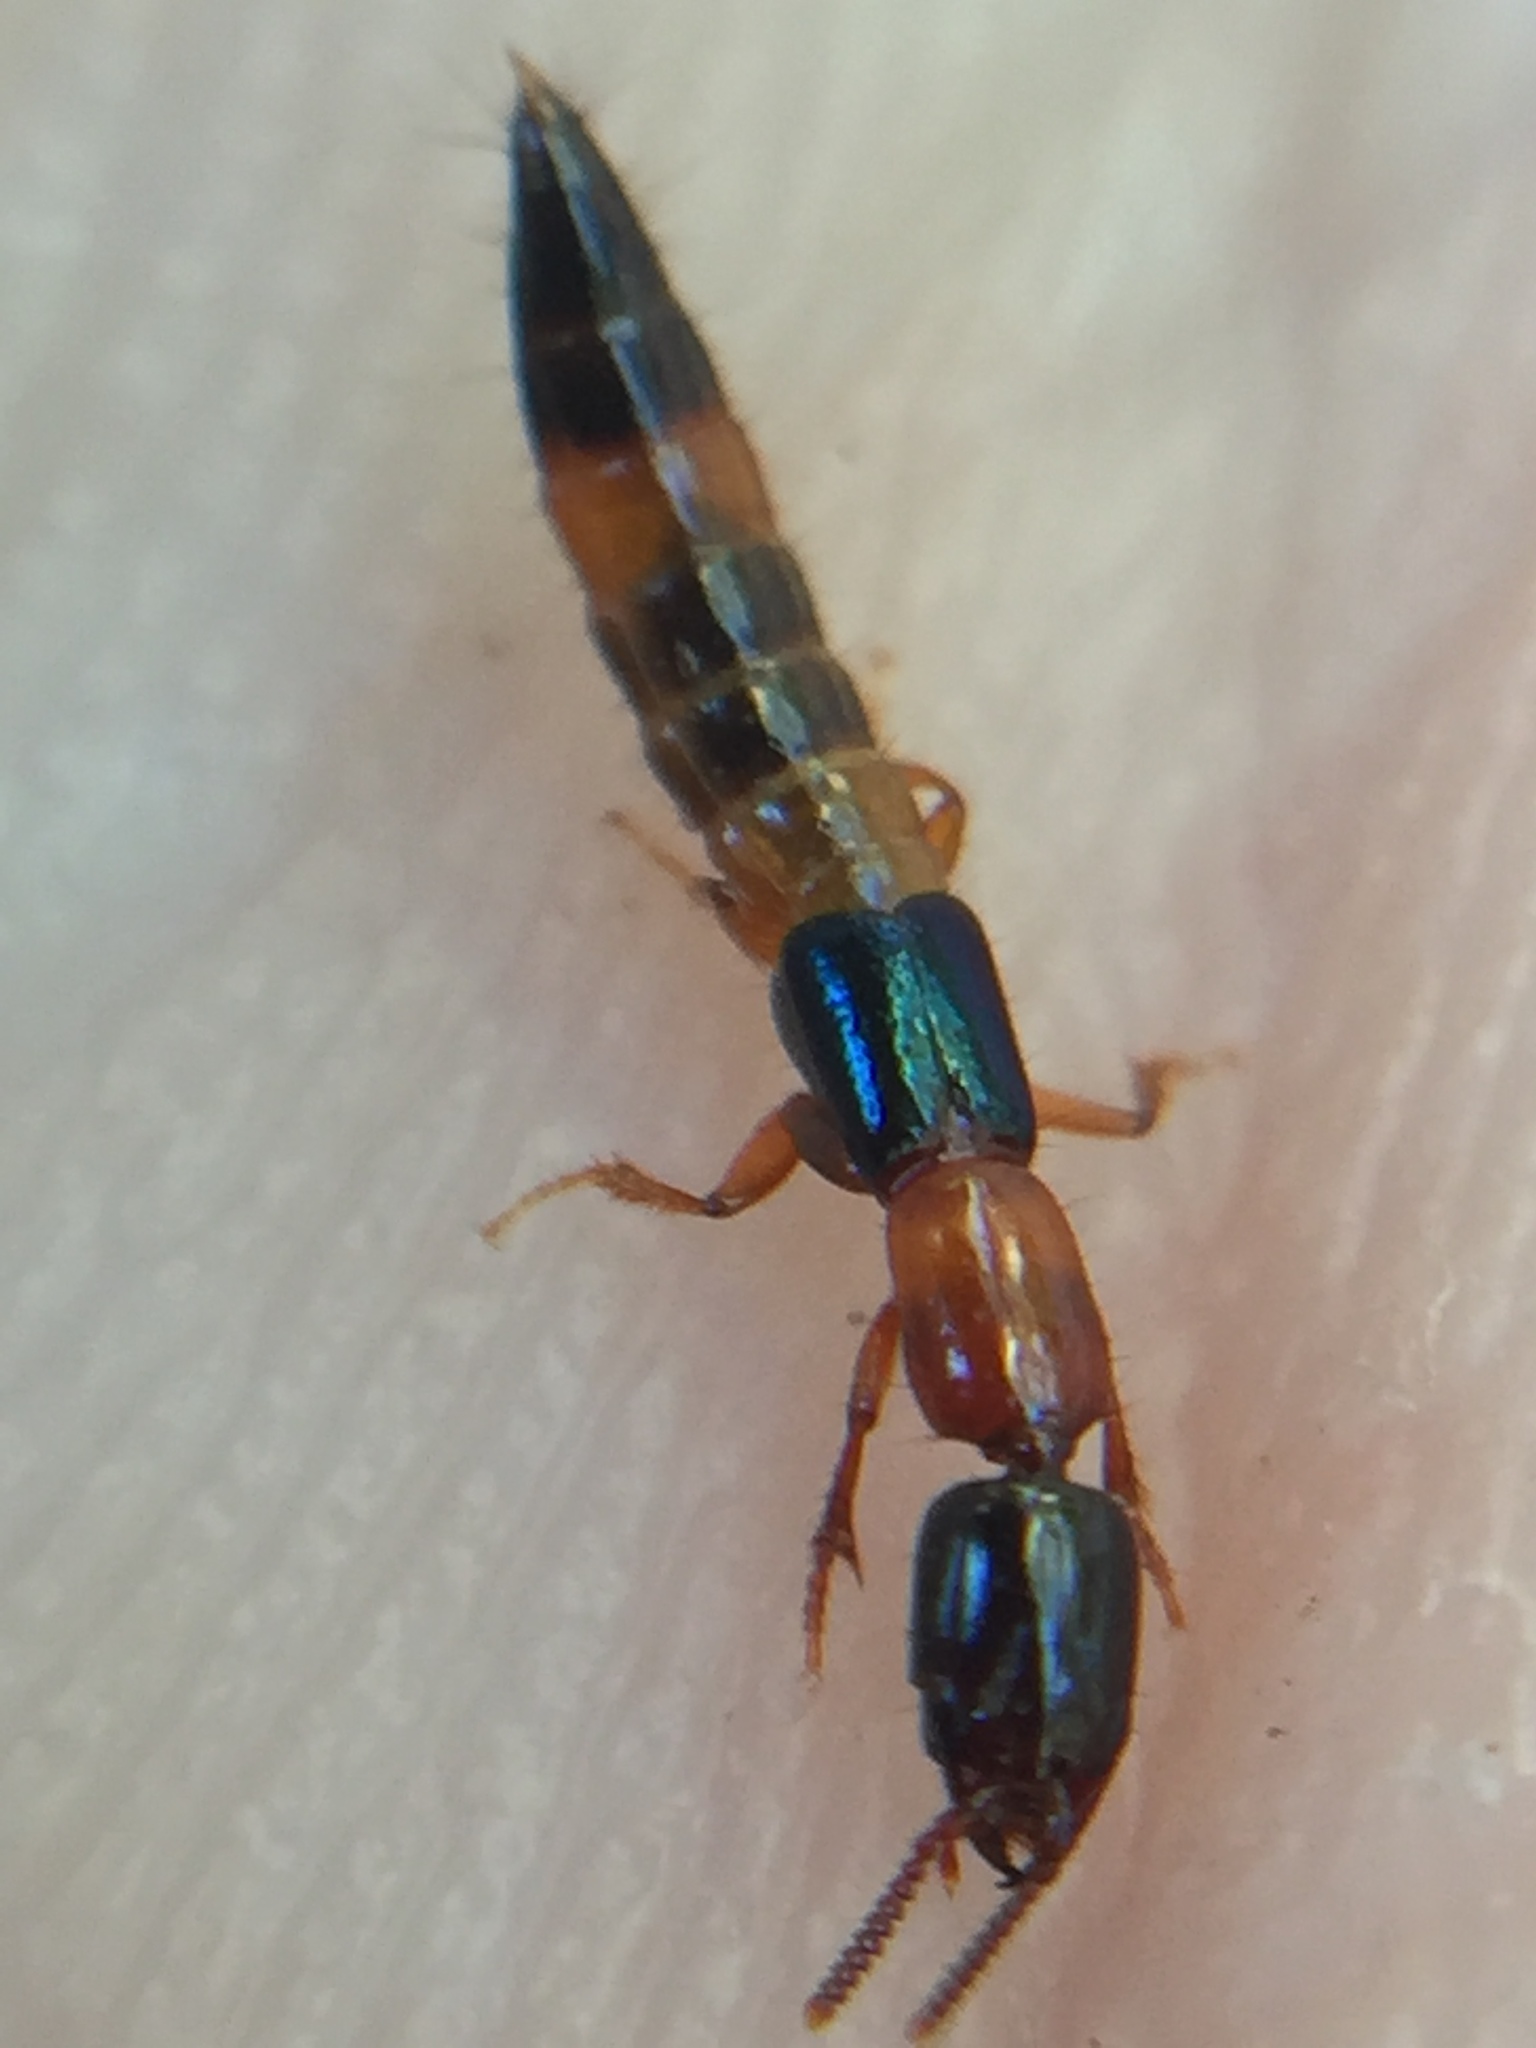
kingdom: Animalia
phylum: Arthropoda
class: Insecta
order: Coleoptera
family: Staphylinidae
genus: Australinus
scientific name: Australinus cyaneipennis
